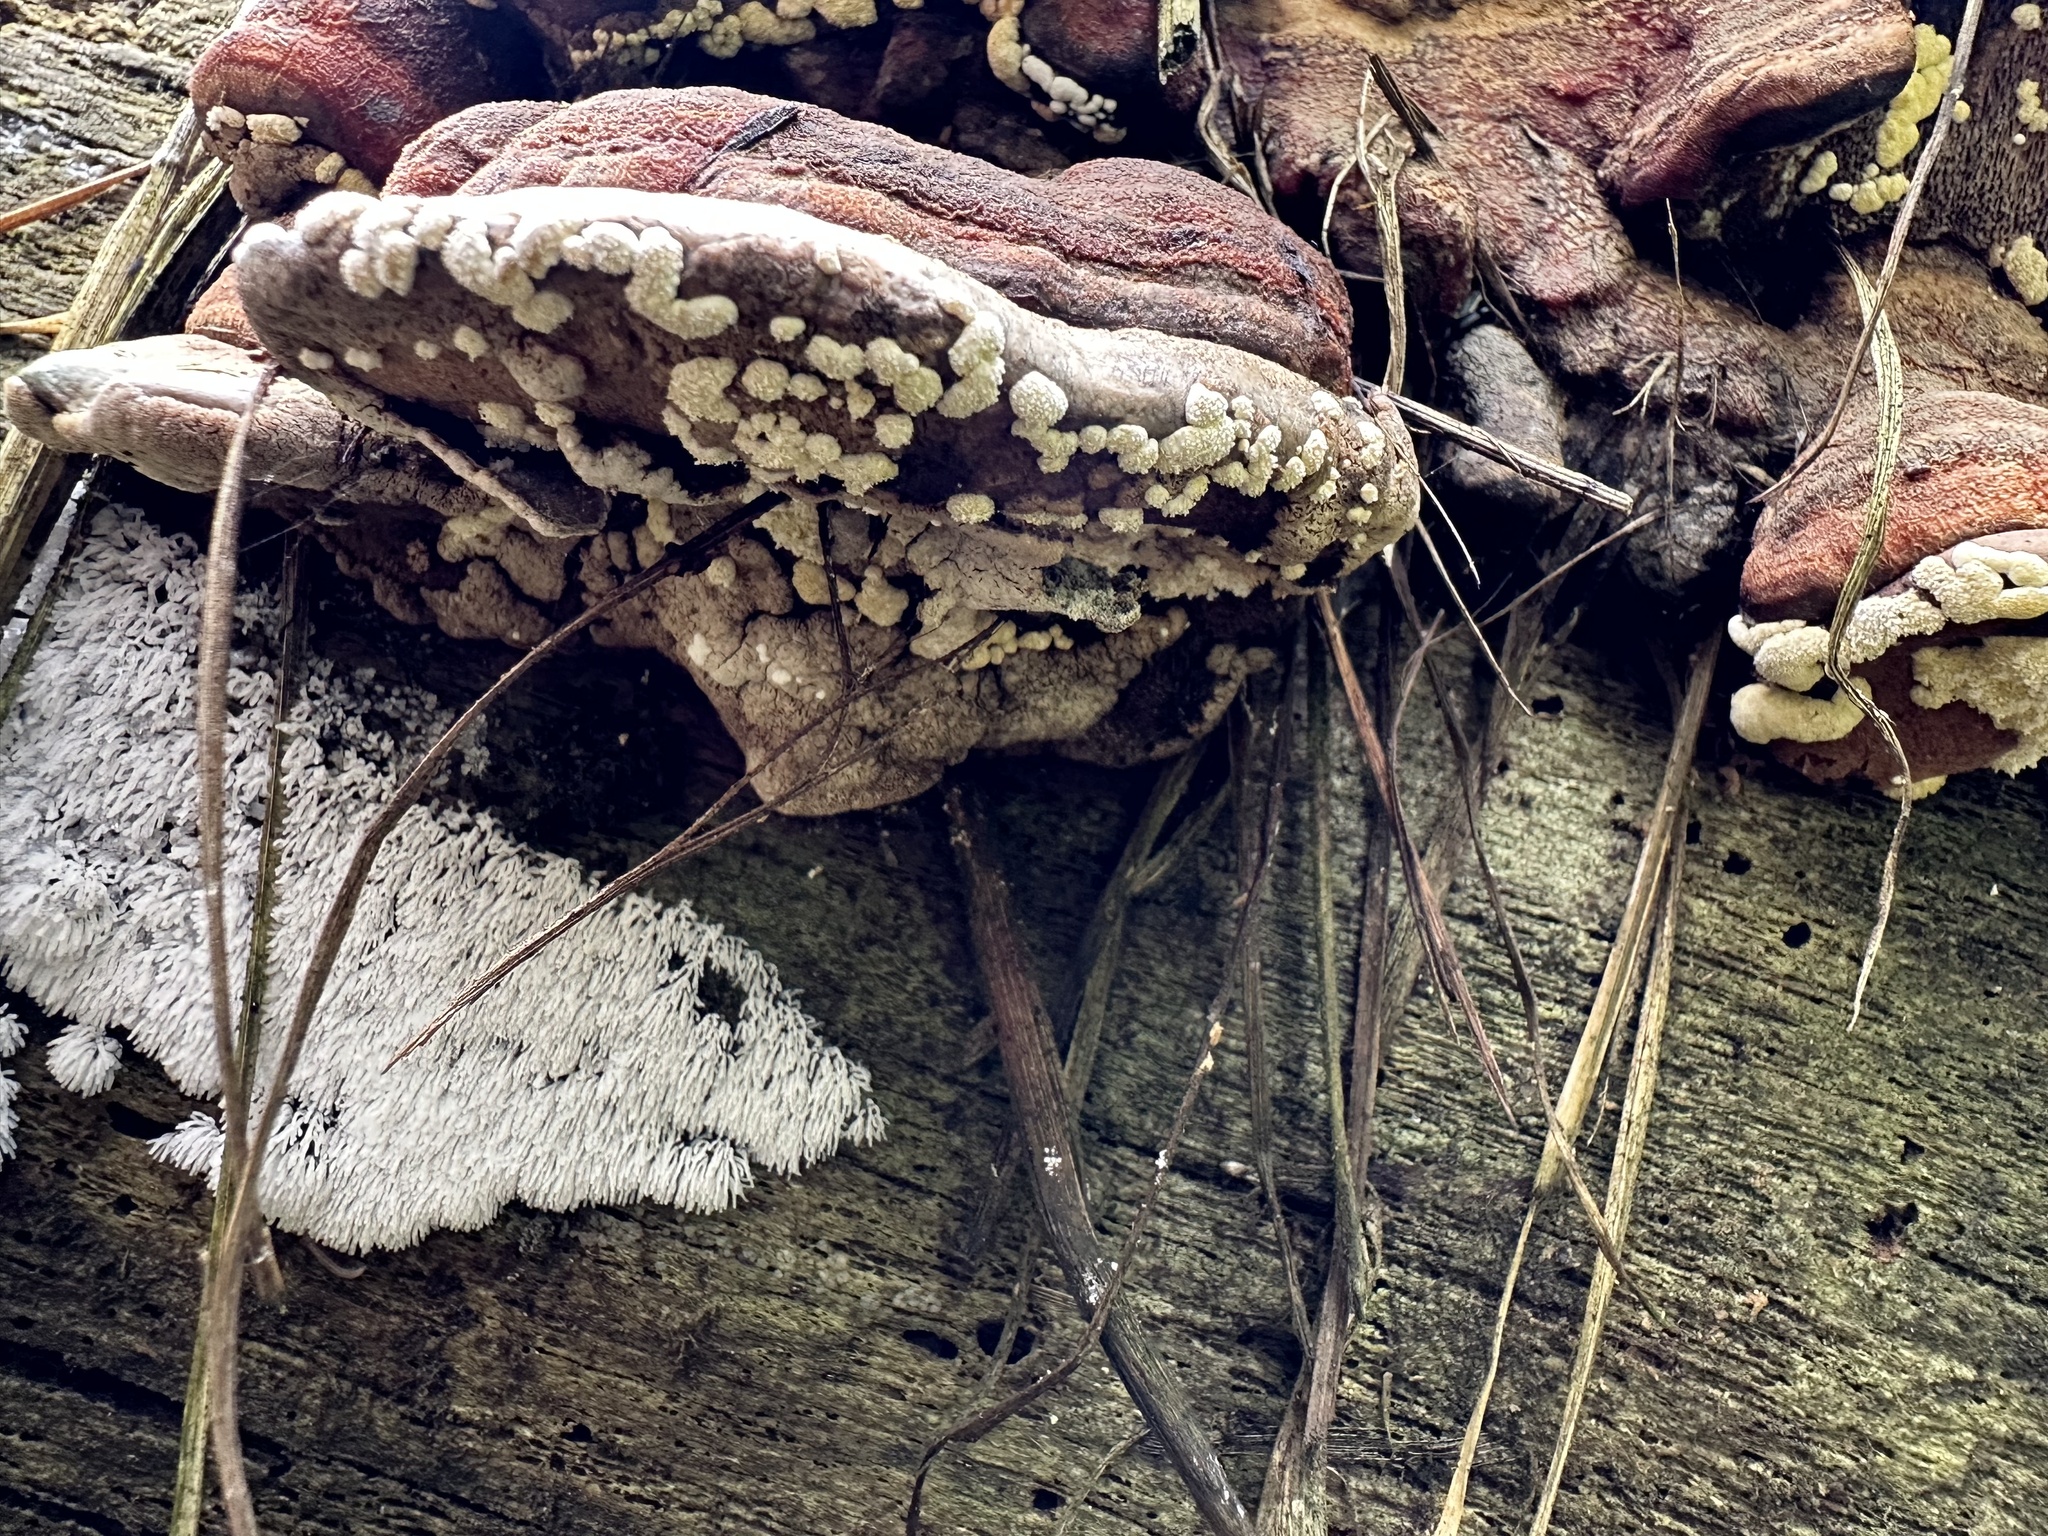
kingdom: Fungi
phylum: Ascomycota
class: Sordariomycetes
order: Hypocreales
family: Hypocreaceae
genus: Trichoderma
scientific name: Trichoderma pulvinatum
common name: Ochre cushion
